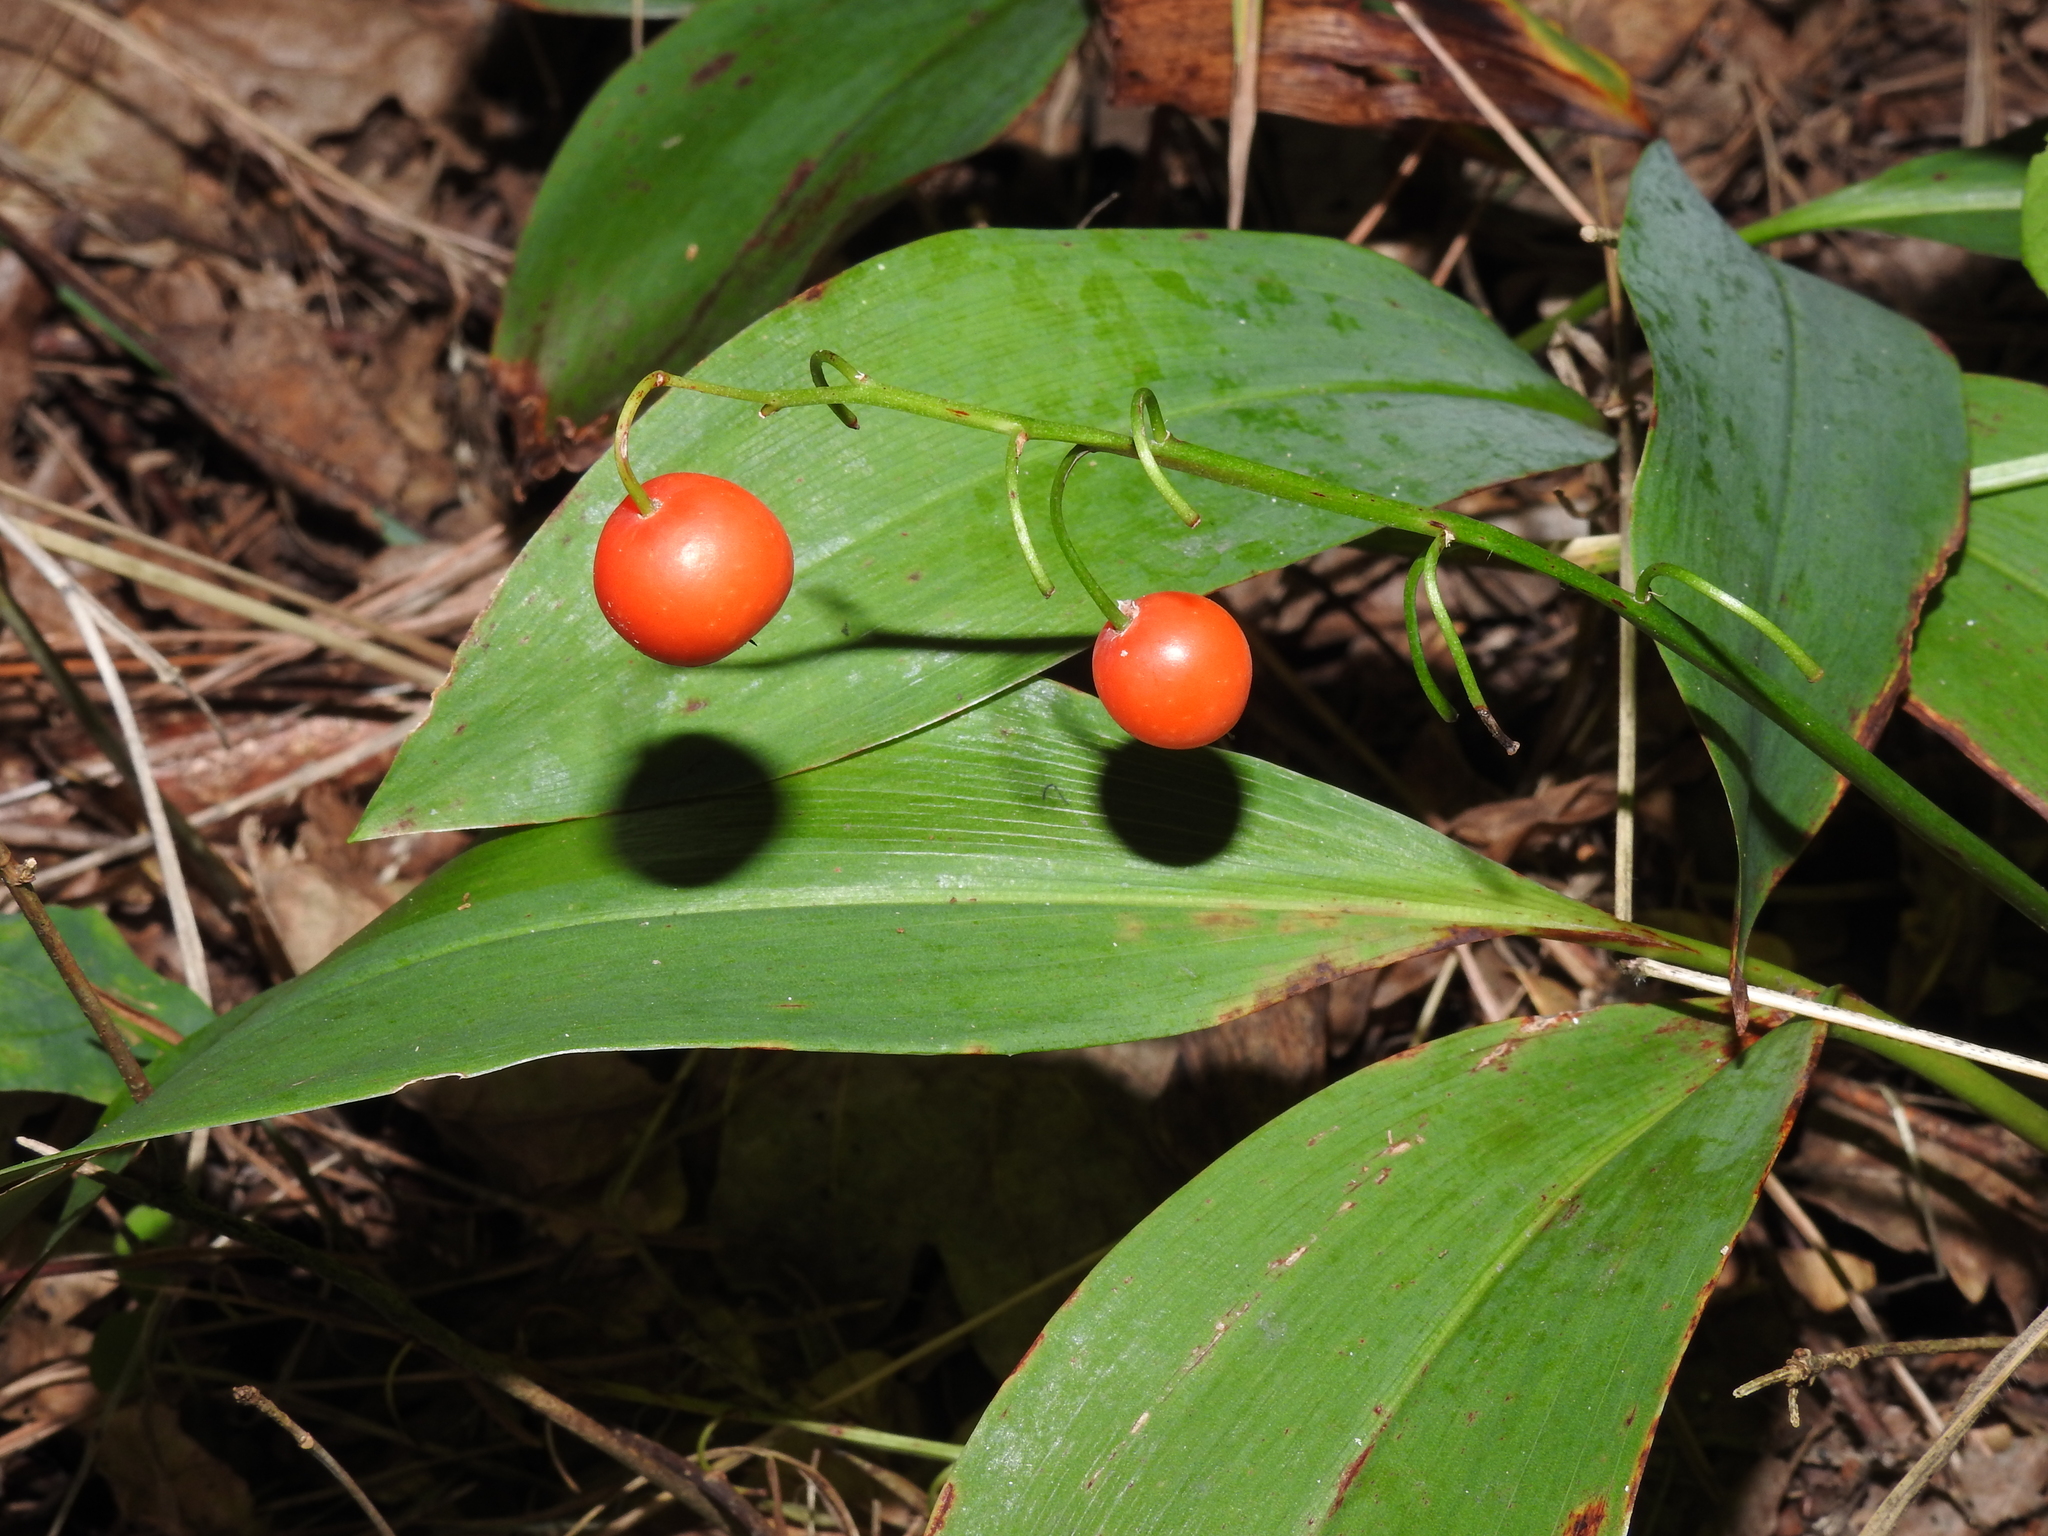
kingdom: Plantae
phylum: Tracheophyta
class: Liliopsida
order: Asparagales
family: Asparagaceae
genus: Convallaria
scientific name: Convallaria majalis
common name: Lily-of-the-valley
